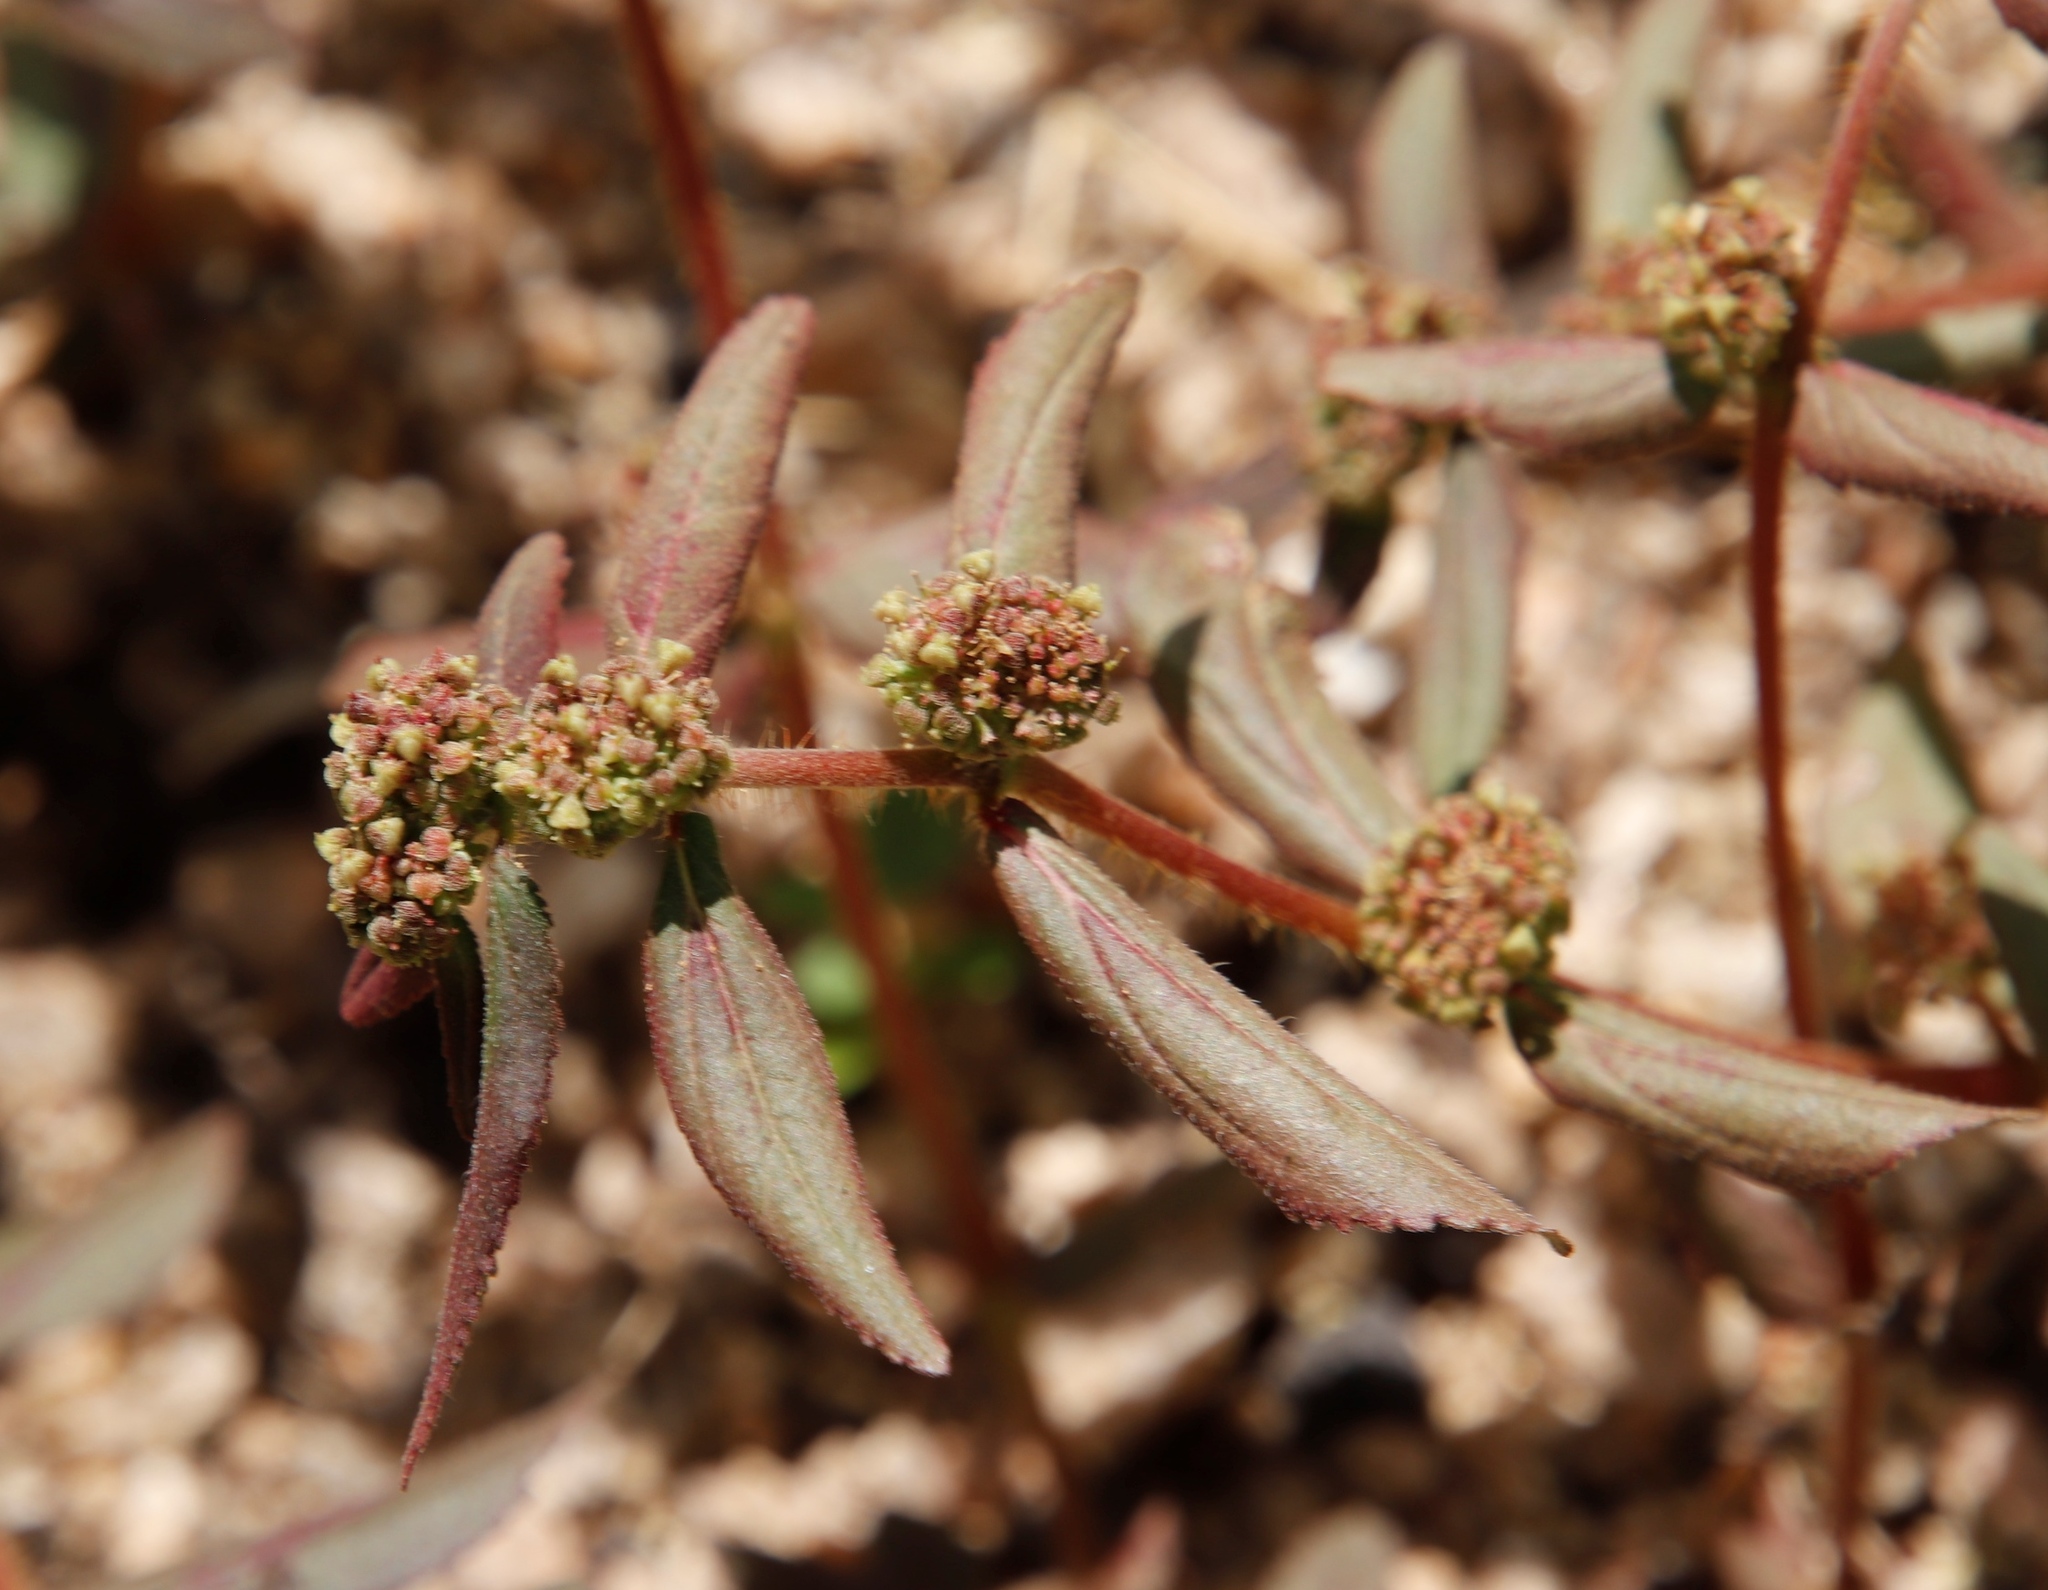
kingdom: Plantae
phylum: Tracheophyta
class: Magnoliopsida
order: Malpighiales
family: Euphorbiaceae
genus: Euphorbia
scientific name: Euphorbia hirta
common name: Pillpod sandmat
